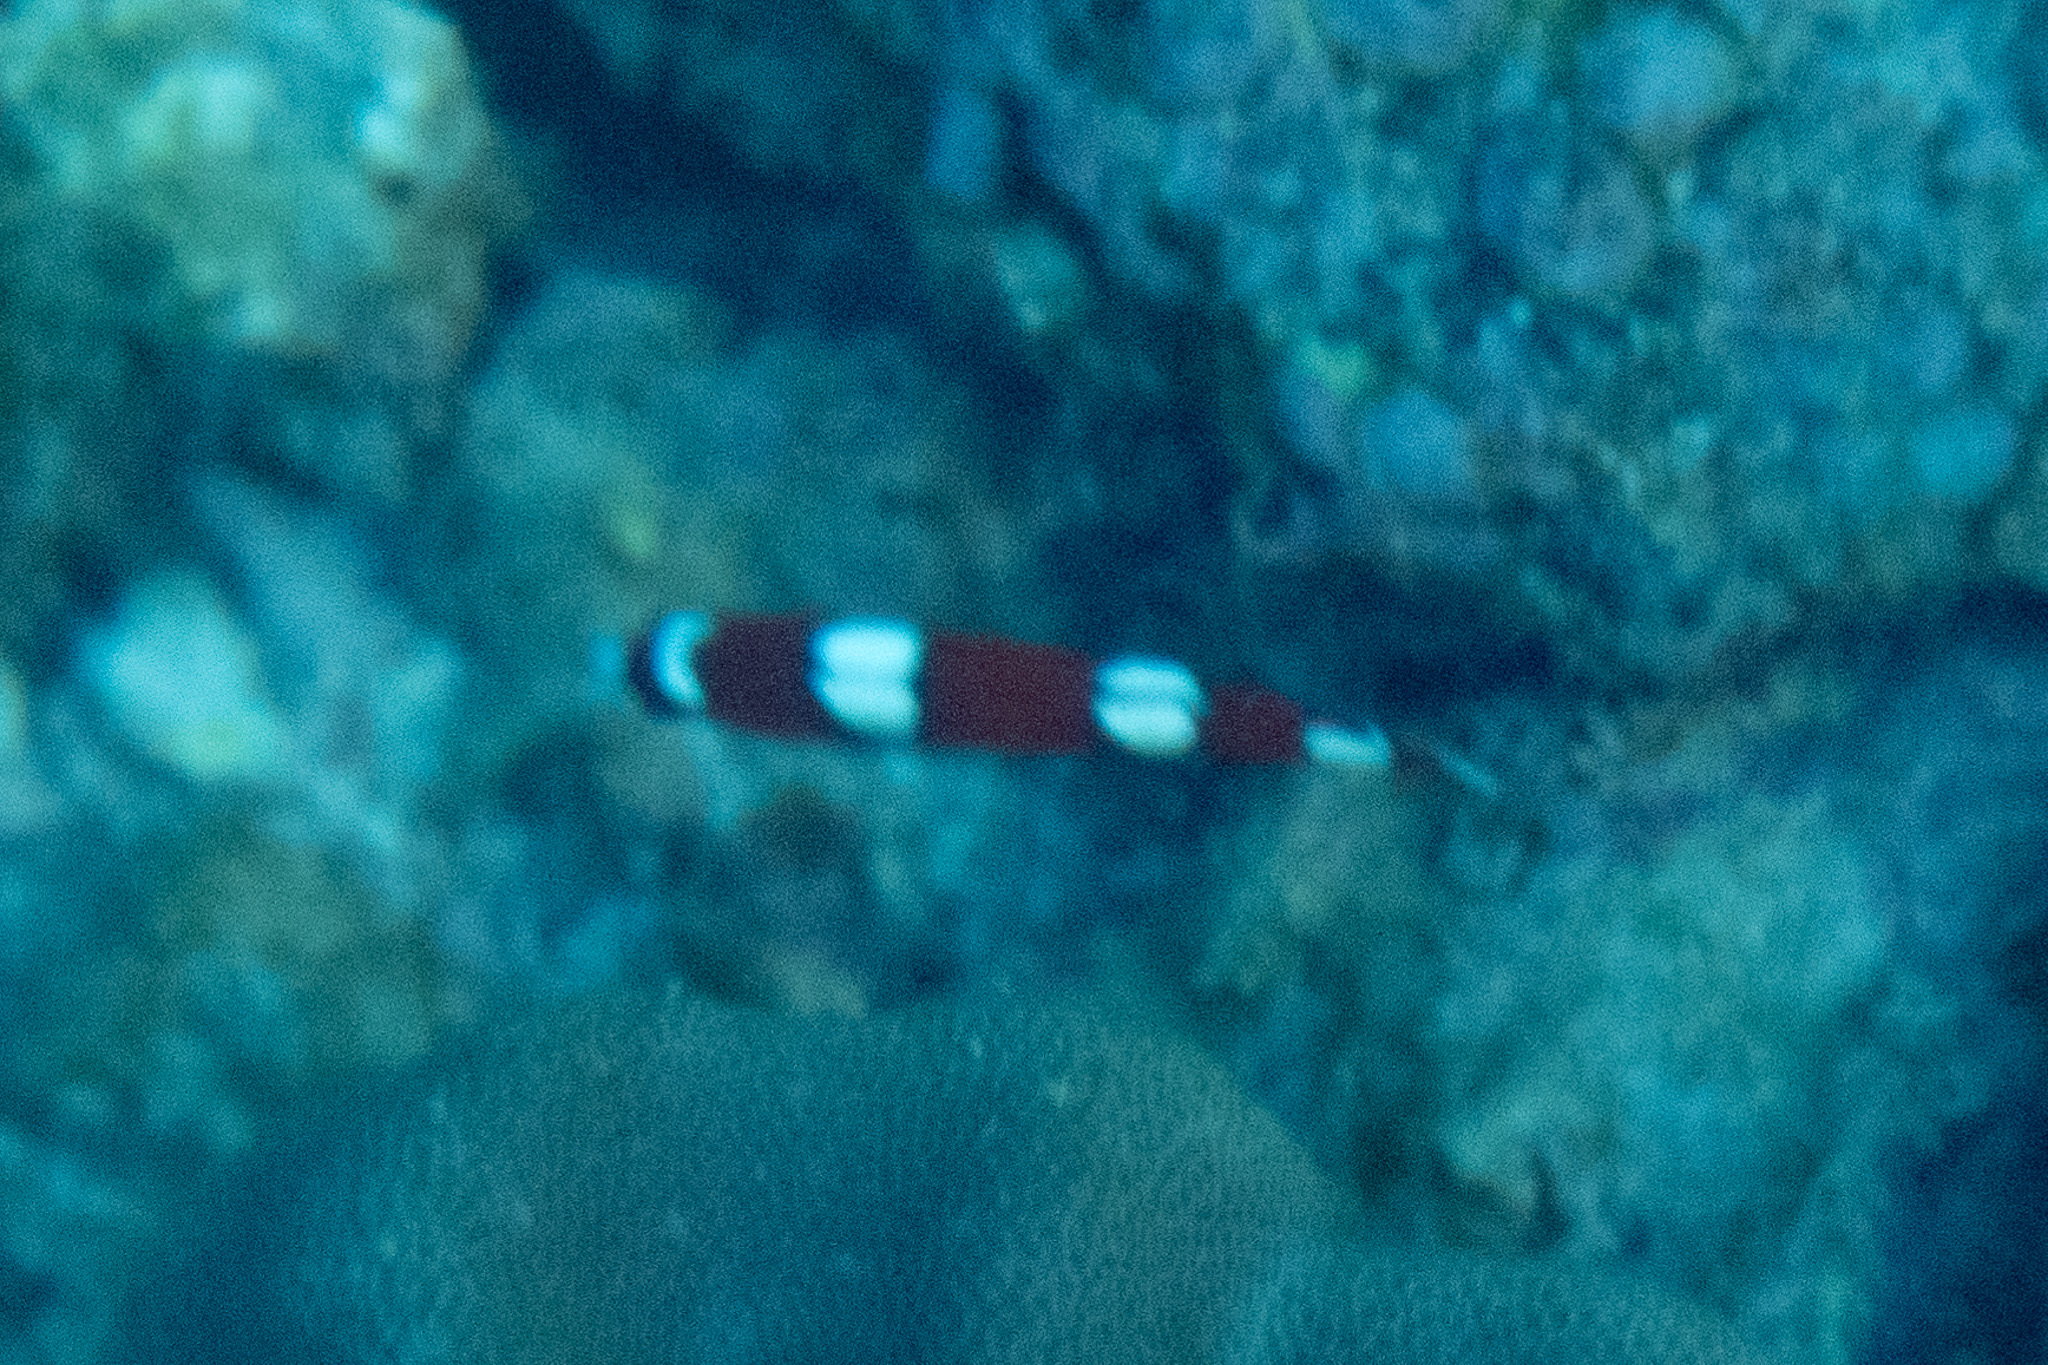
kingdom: Animalia
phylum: Chordata
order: Perciformes
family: Labridae
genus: Coris
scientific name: Coris gaimard
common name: Yellowtail coris
